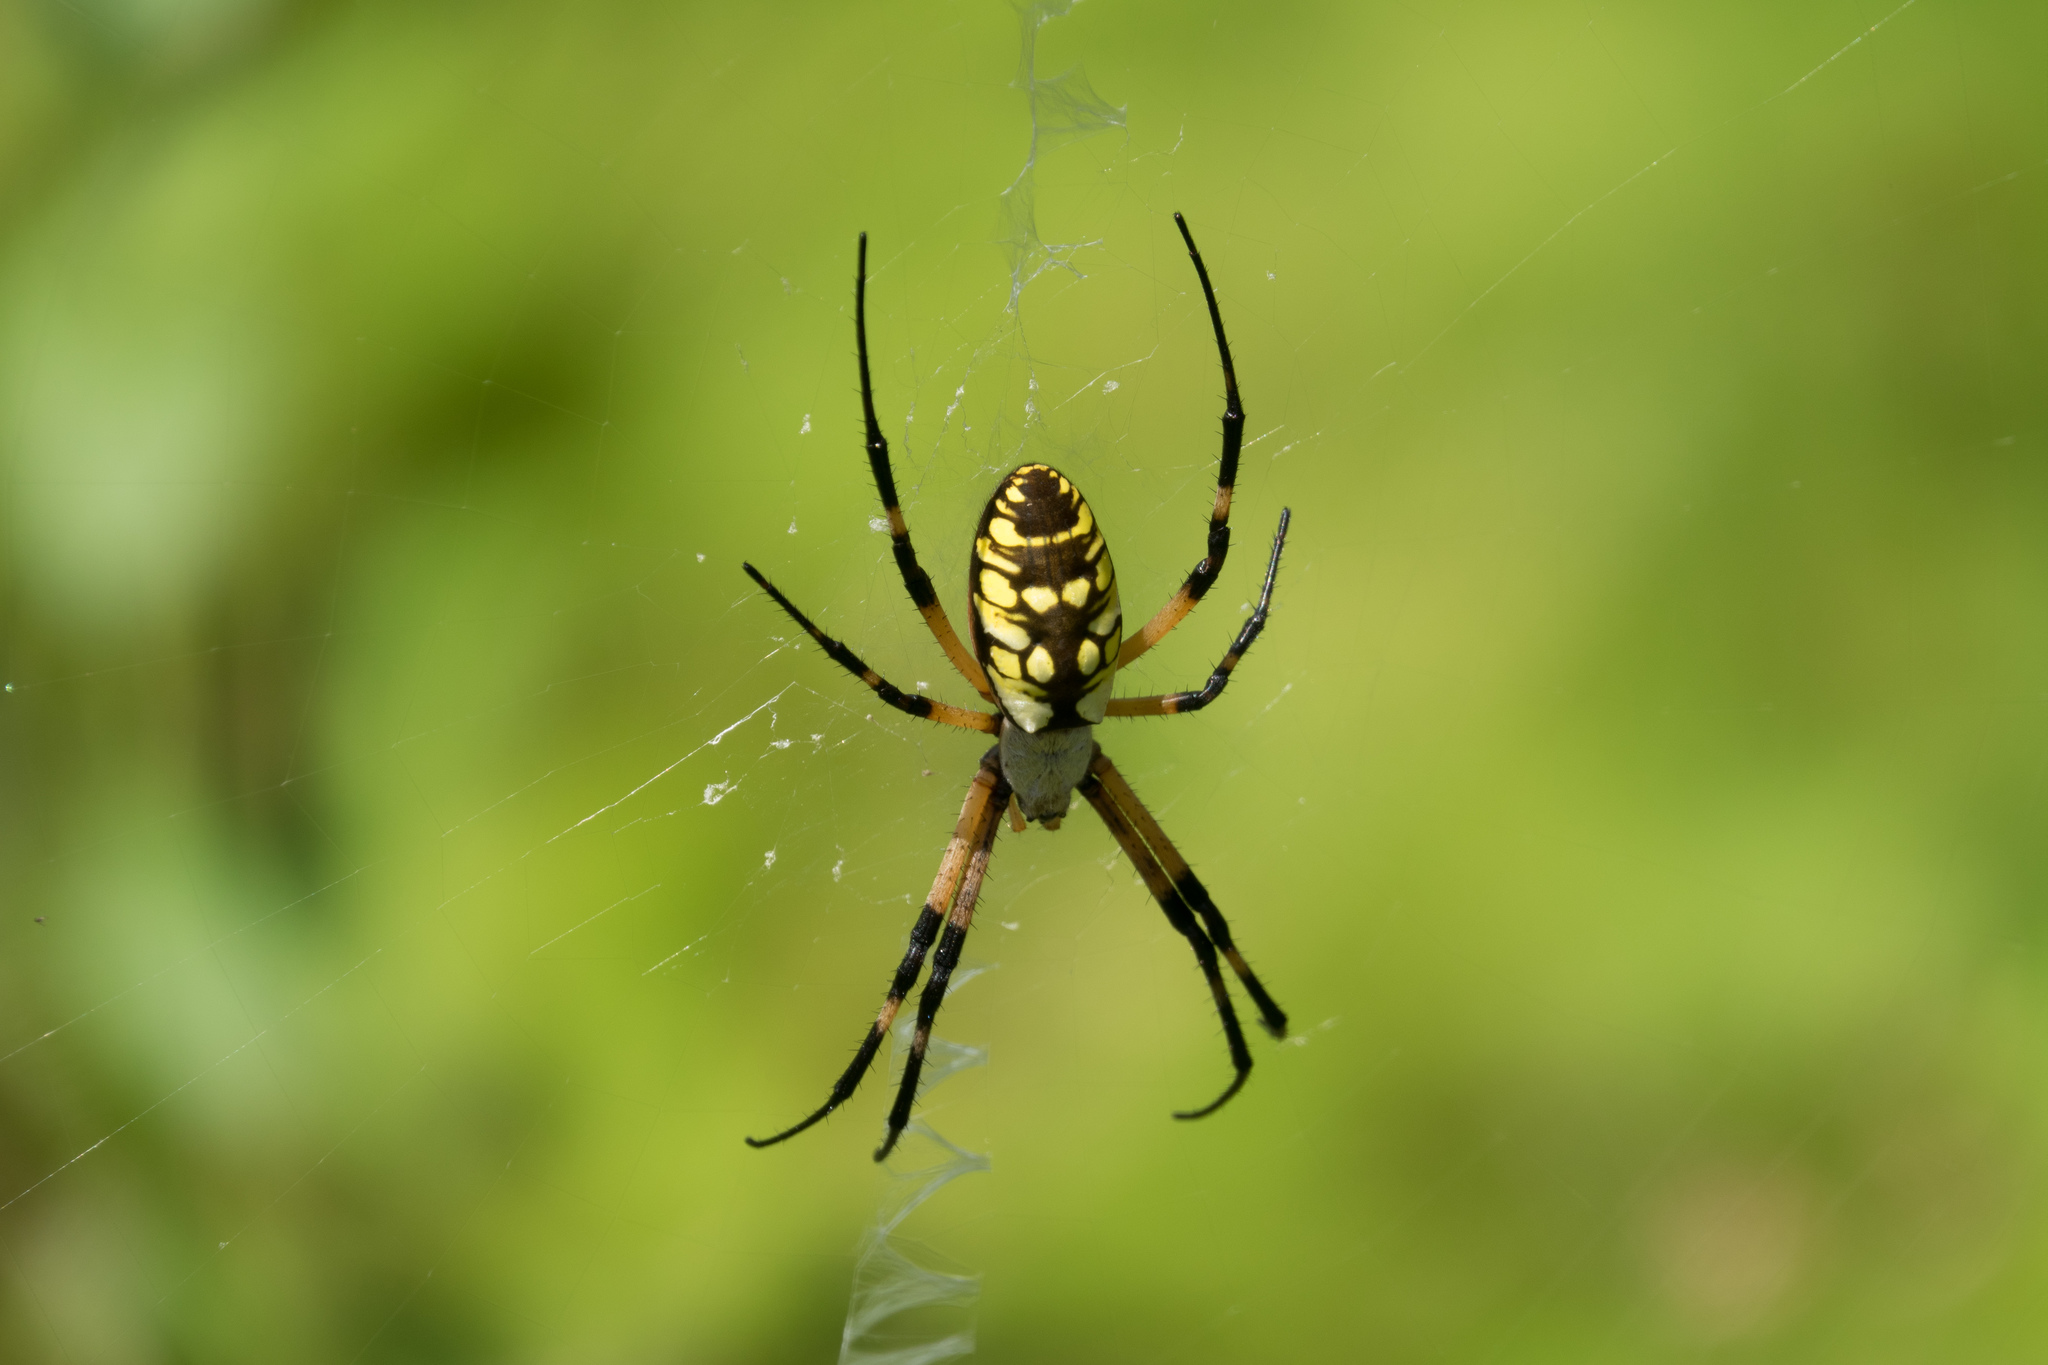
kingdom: Animalia
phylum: Arthropoda
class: Arachnida
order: Araneae
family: Araneidae
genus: Argiope
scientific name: Argiope aurantia
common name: Orb weavers
